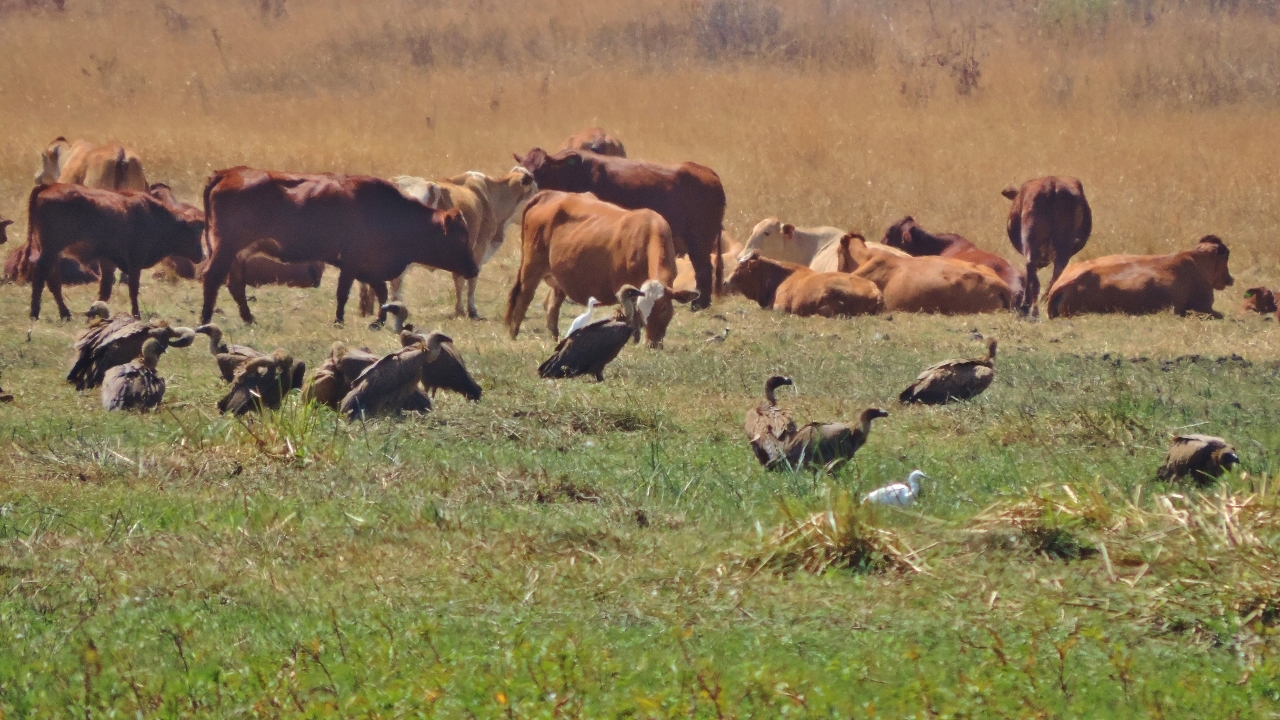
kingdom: Animalia
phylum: Chordata
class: Aves
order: Accipitriformes
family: Accipitridae
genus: Gyps
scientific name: Gyps africanus
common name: White-backed vulture
